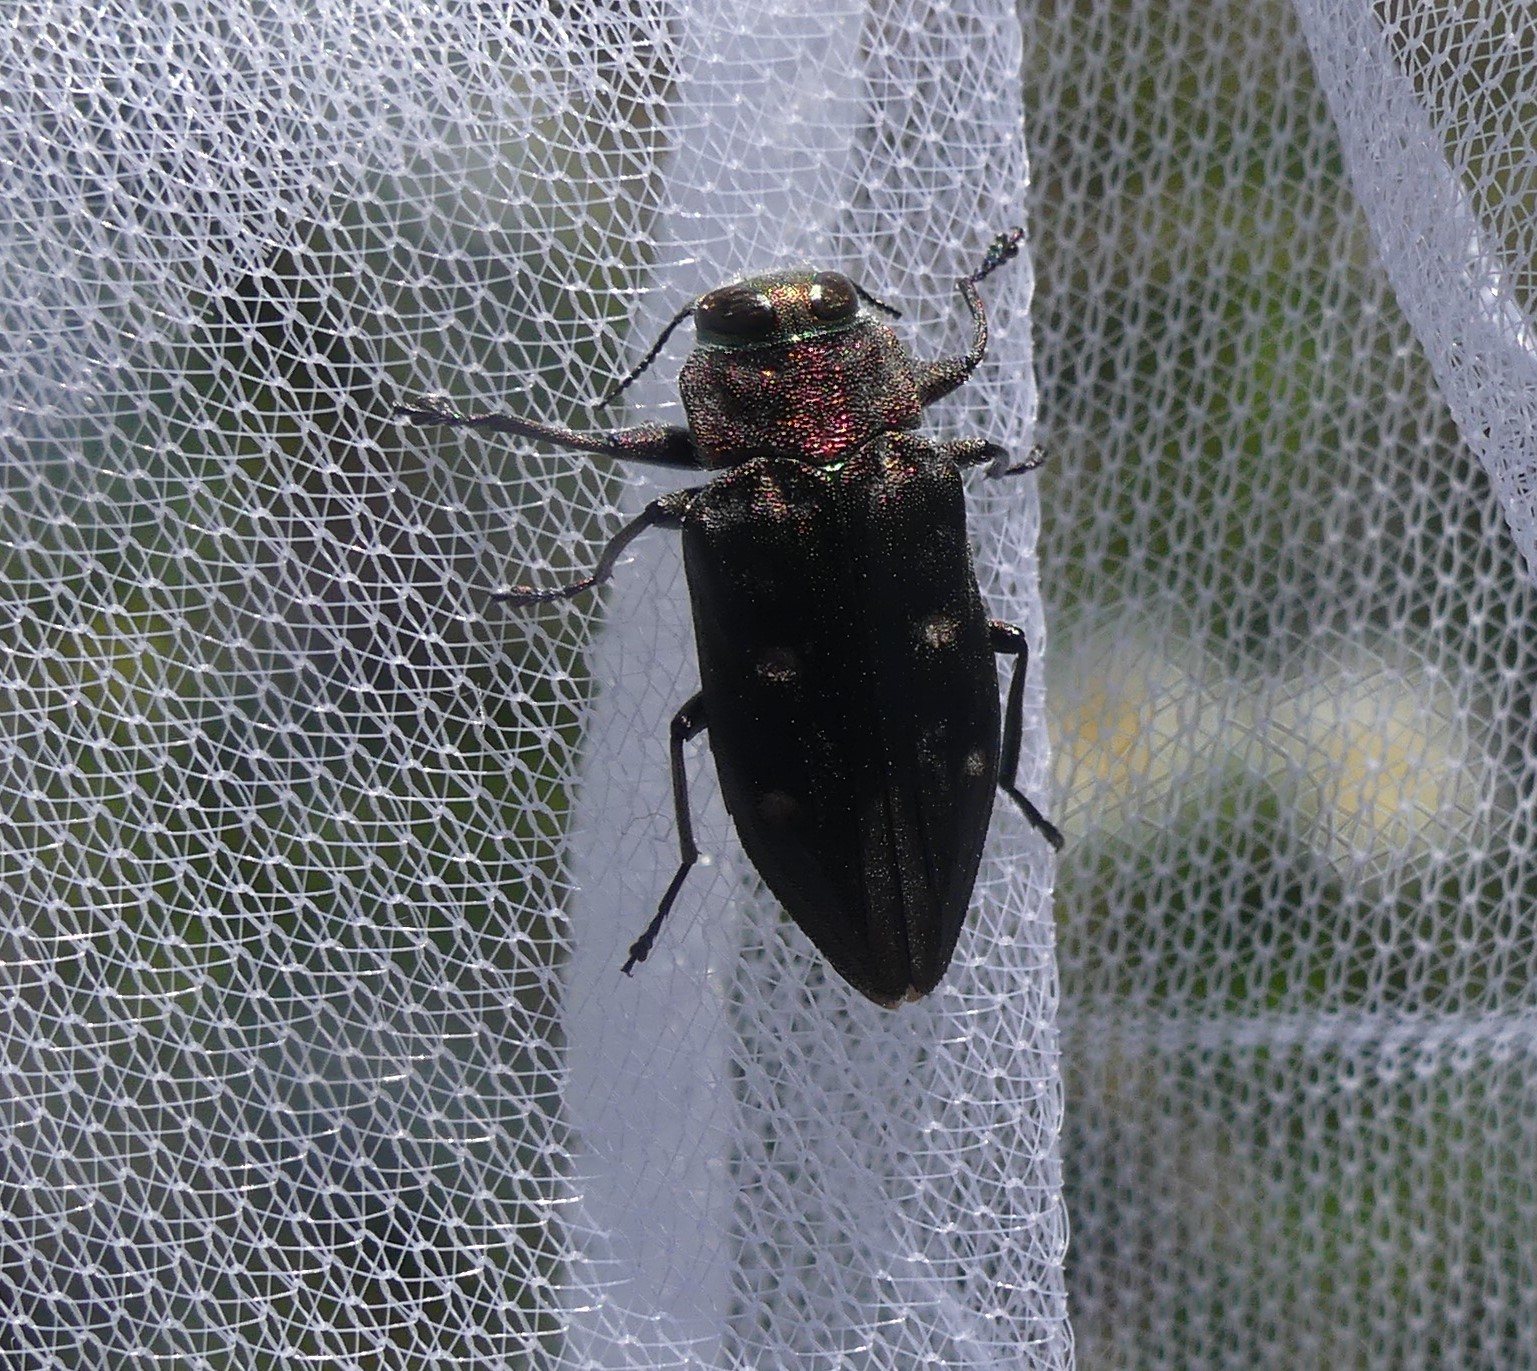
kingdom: Animalia
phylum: Arthropoda
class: Insecta
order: Coleoptera
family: Buprestidae
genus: Chrysobothris
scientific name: Chrysobothris affinis
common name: Beetle
